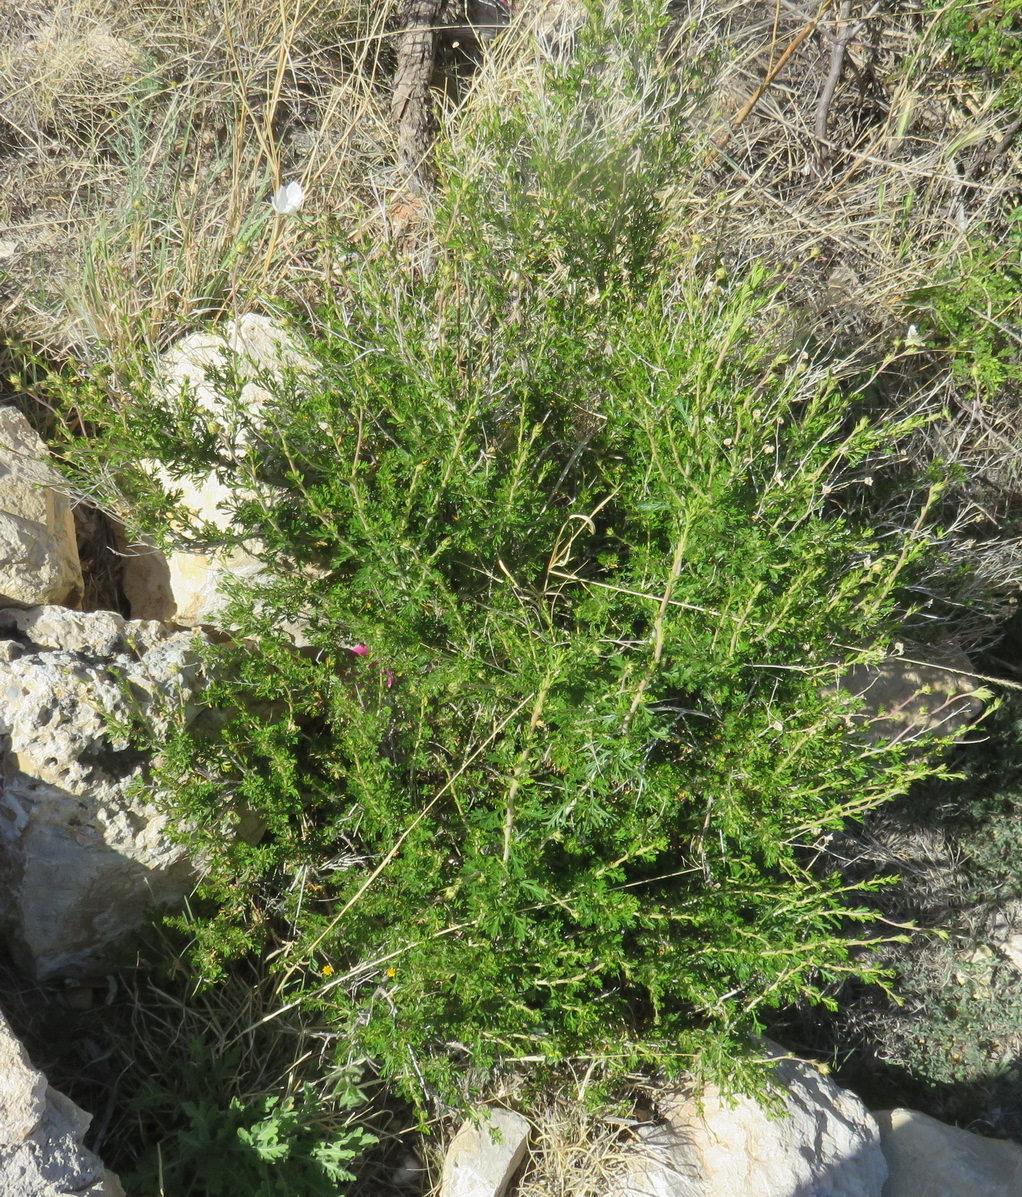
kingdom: Plantae
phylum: Tracheophyta
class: Magnoliopsida
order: Rosales
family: Rosaceae
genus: Fallugia
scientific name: Fallugia paradoxa
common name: Apache-plume
